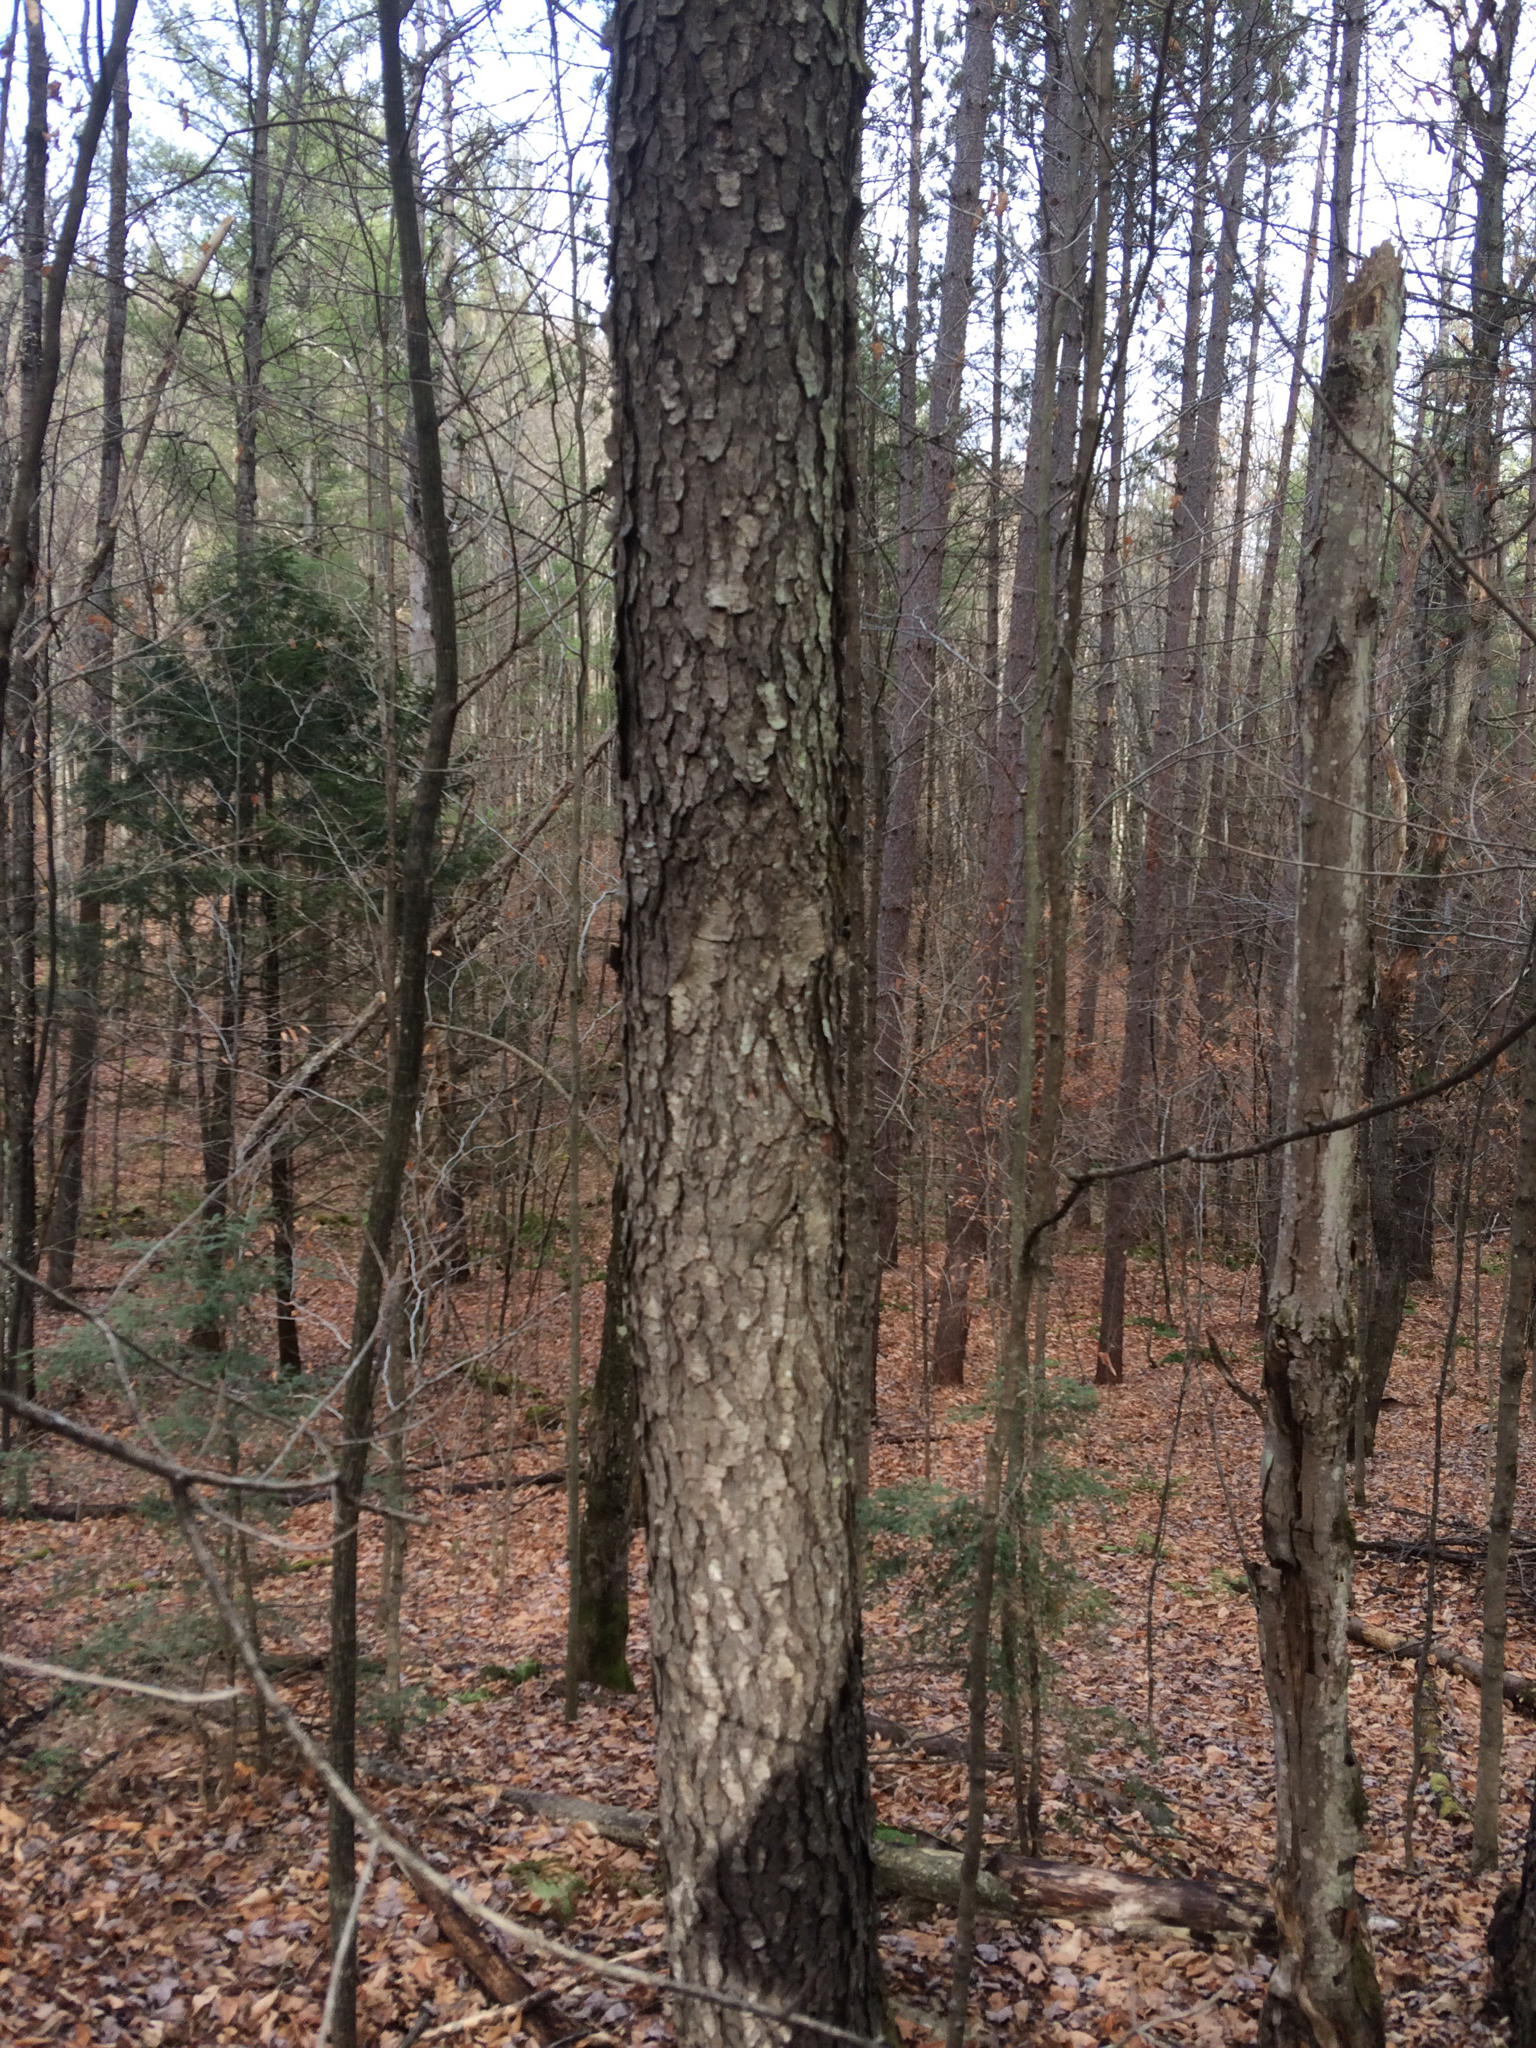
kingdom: Plantae
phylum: Tracheophyta
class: Magnoliopsida
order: Rosales
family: Rosaceae
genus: Prunus
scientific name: Prunus serotina
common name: Black cherry
